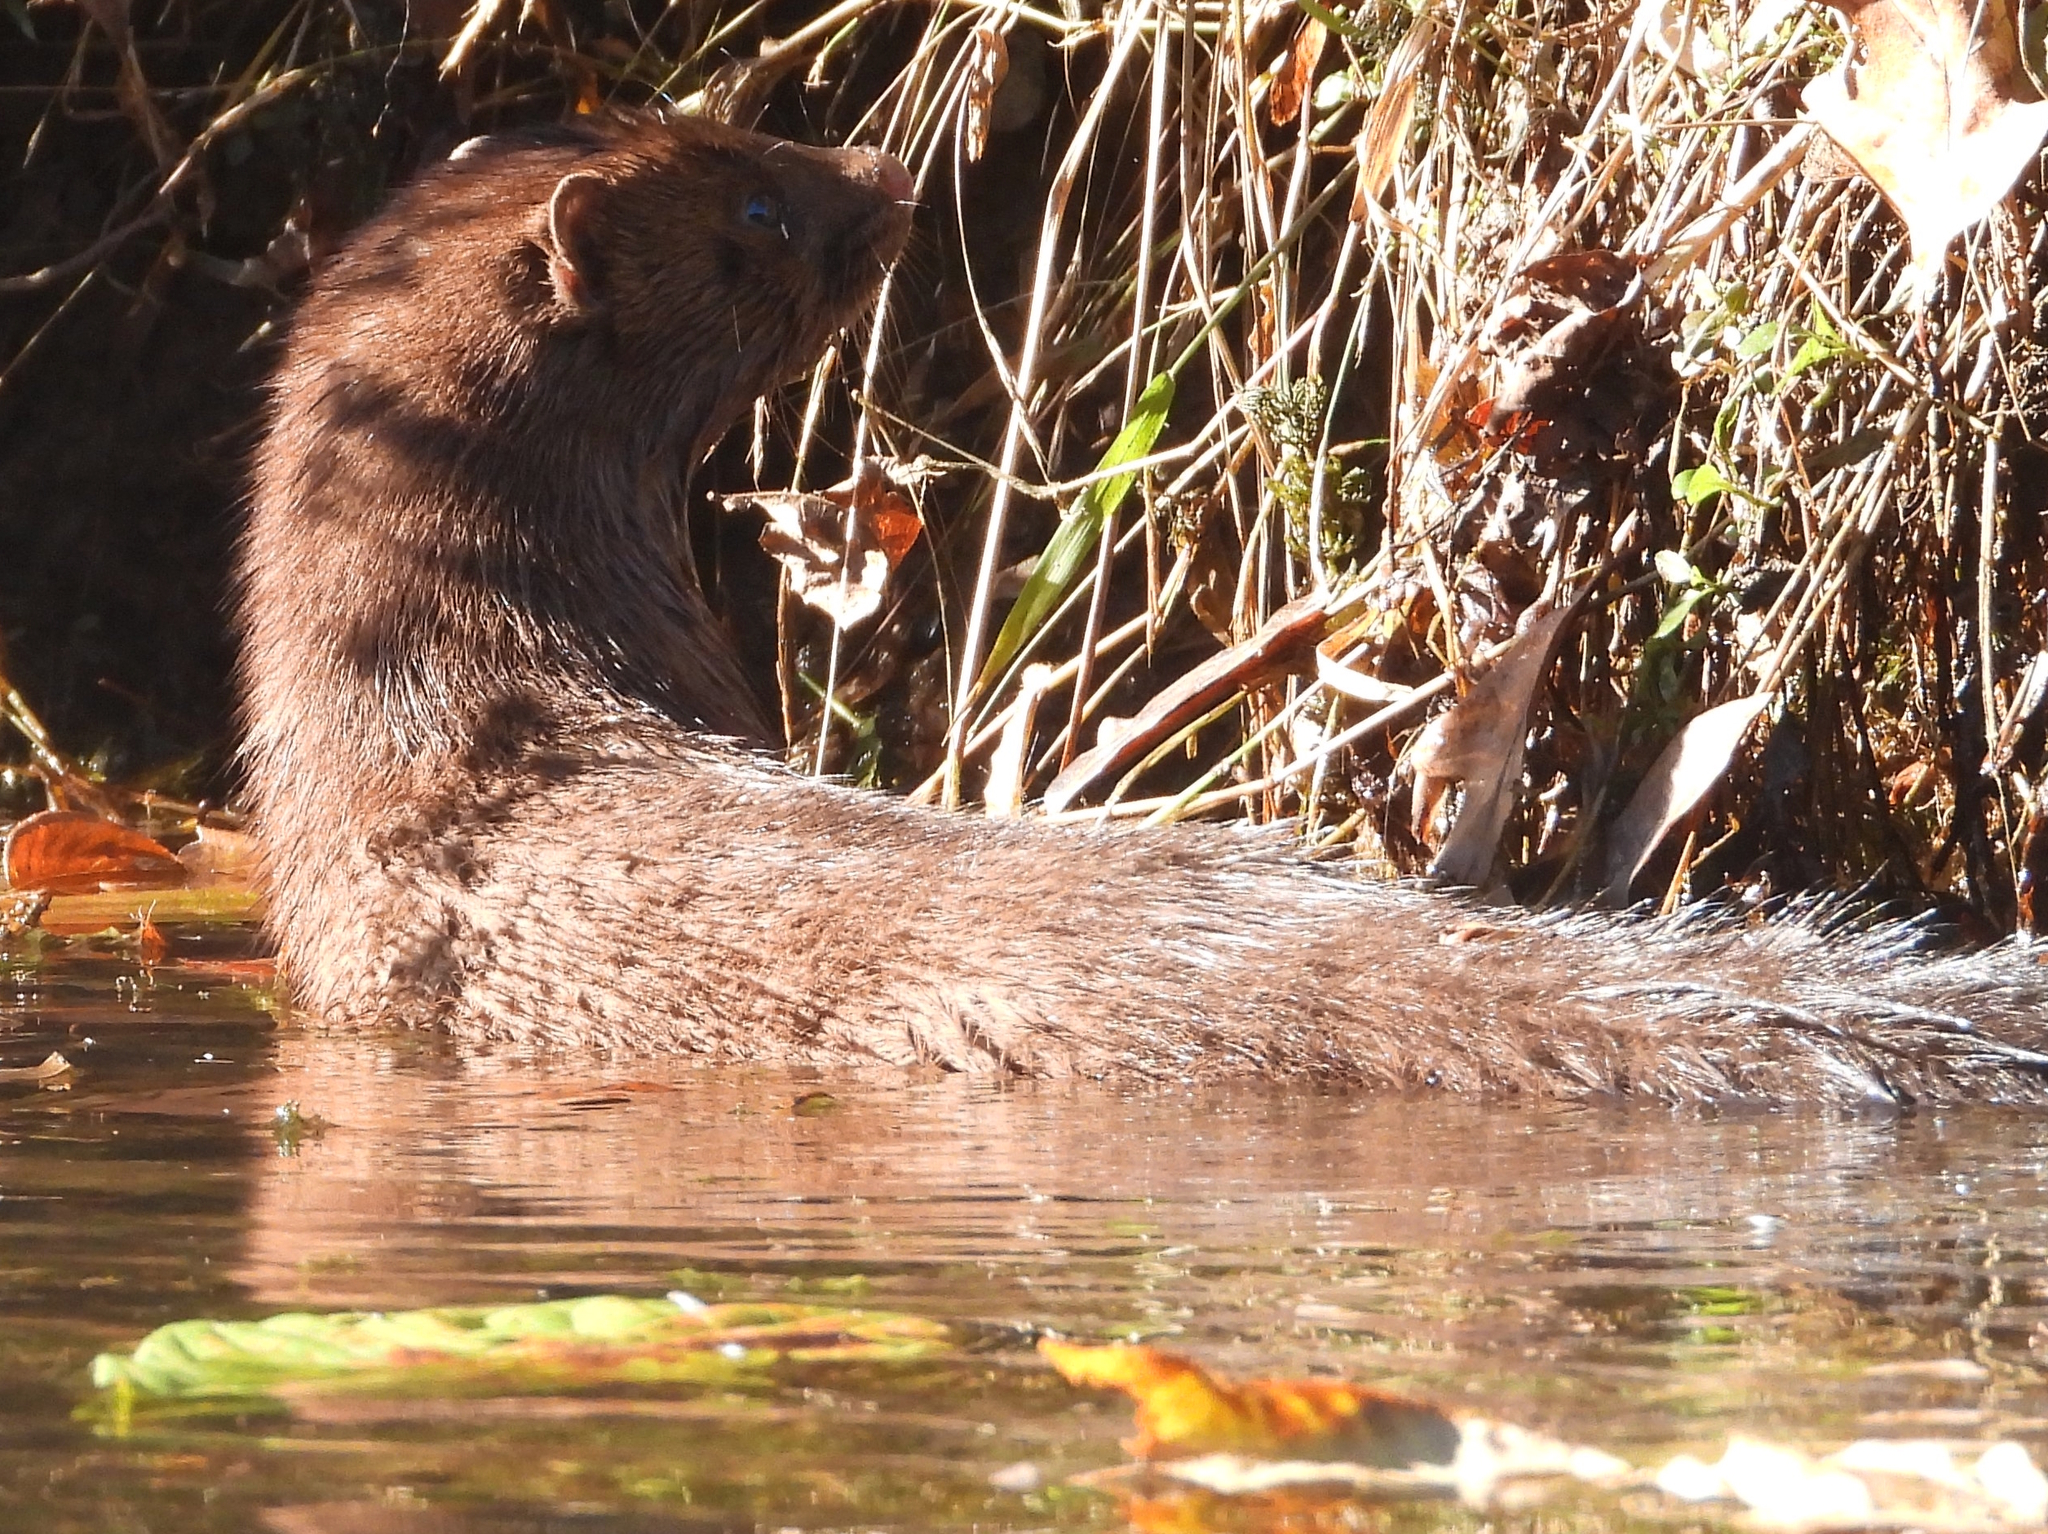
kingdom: Animalia
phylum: Chordata
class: Mammalia
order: Carnivora
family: Mustelidae
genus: Mustela
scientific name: Mustela
